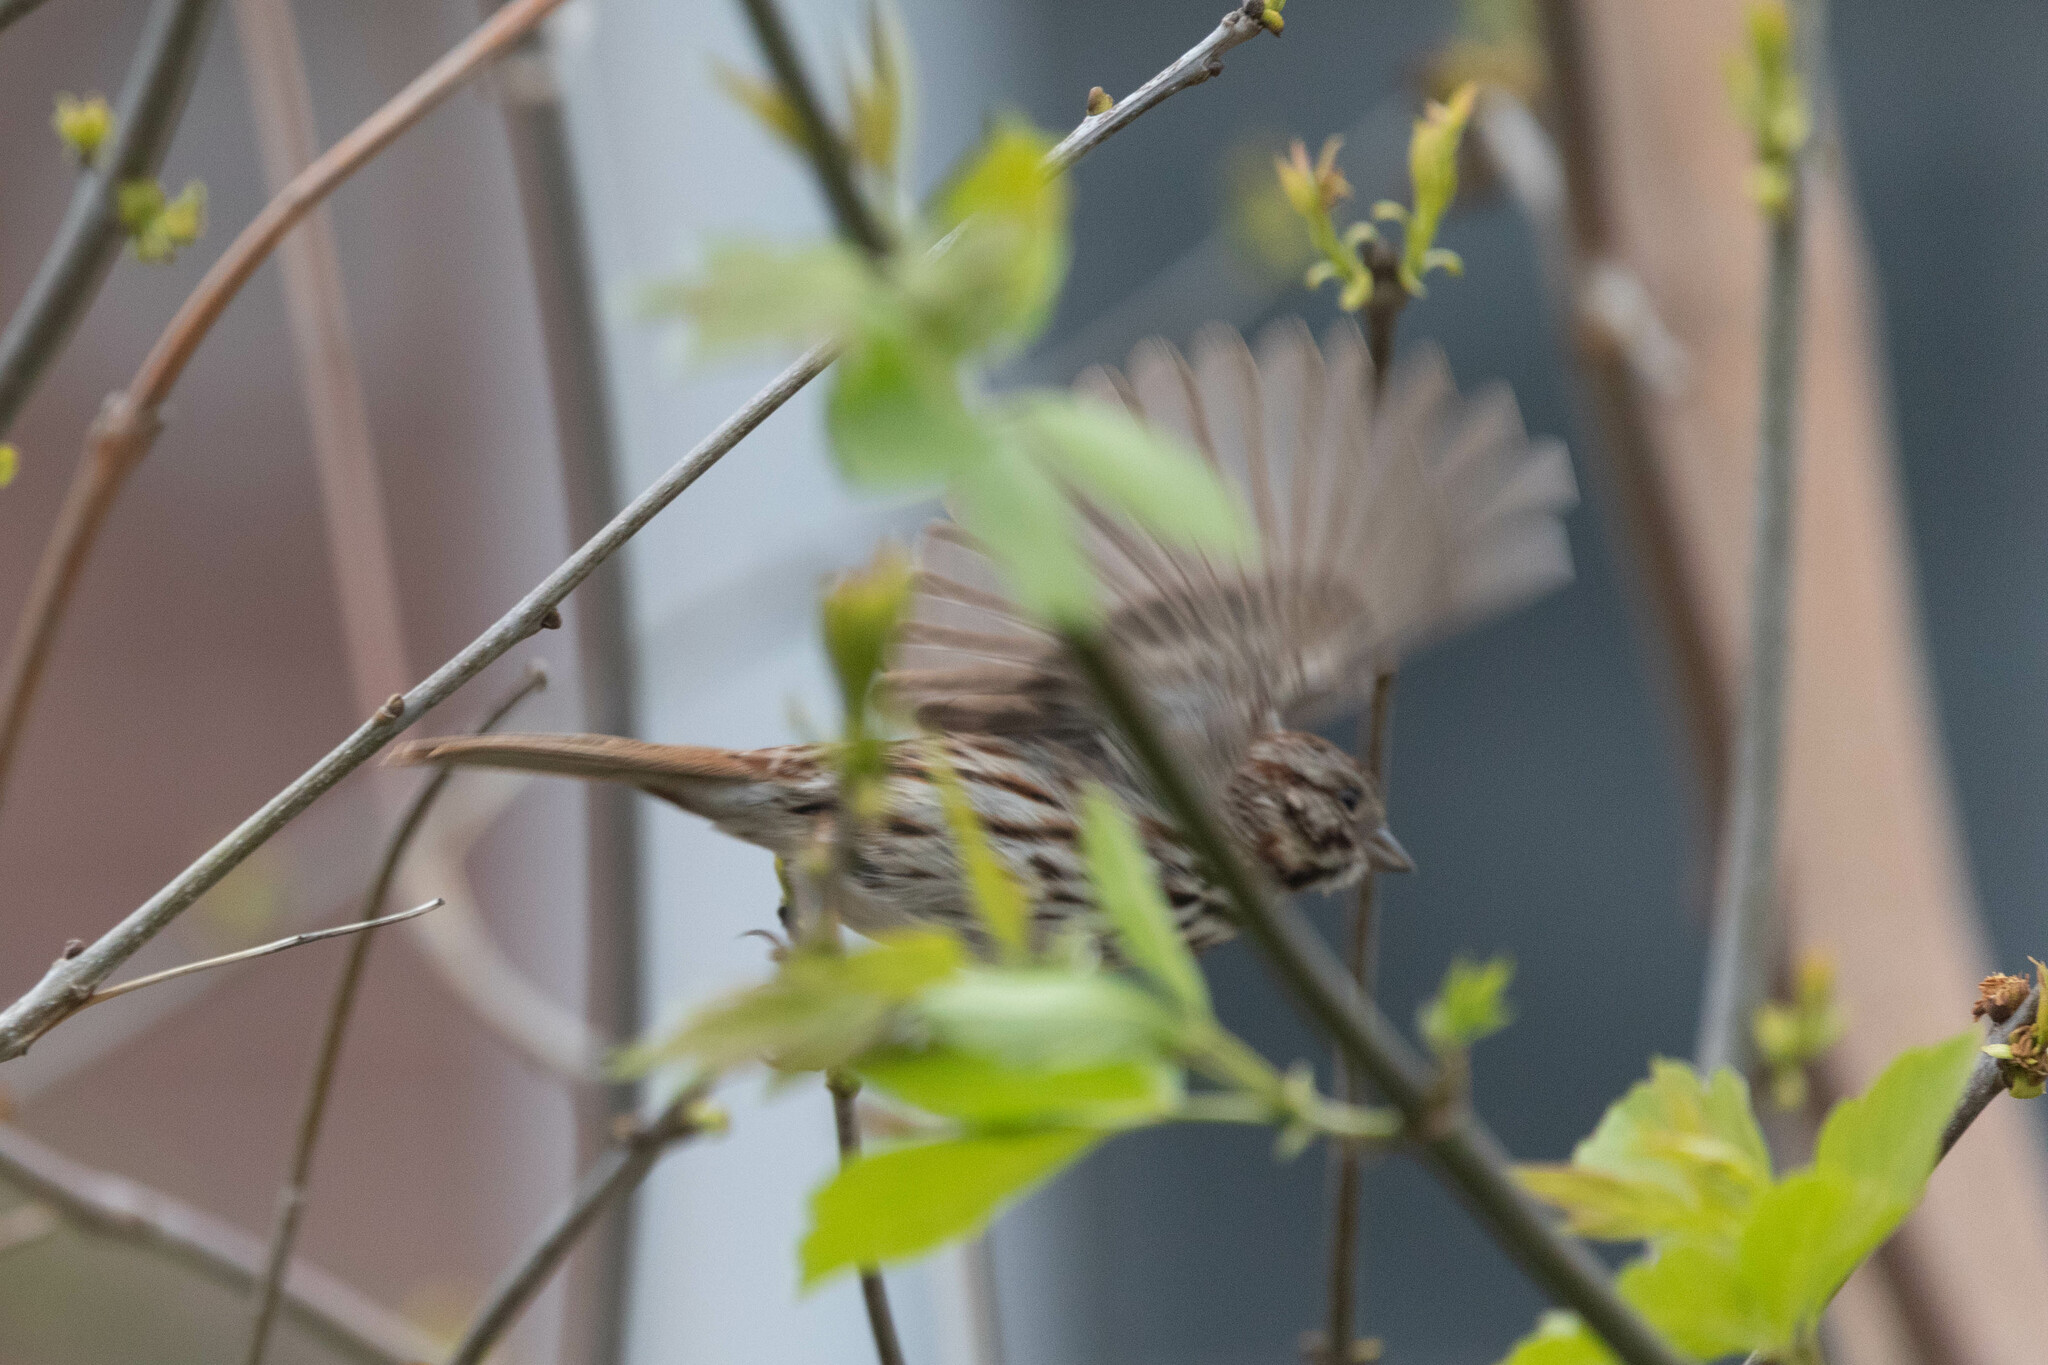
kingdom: Animalia
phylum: Chordata
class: Aves
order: Passeriformes
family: Passerellidae
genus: Melospiza
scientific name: Melospiza melodia
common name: Song sparrow
